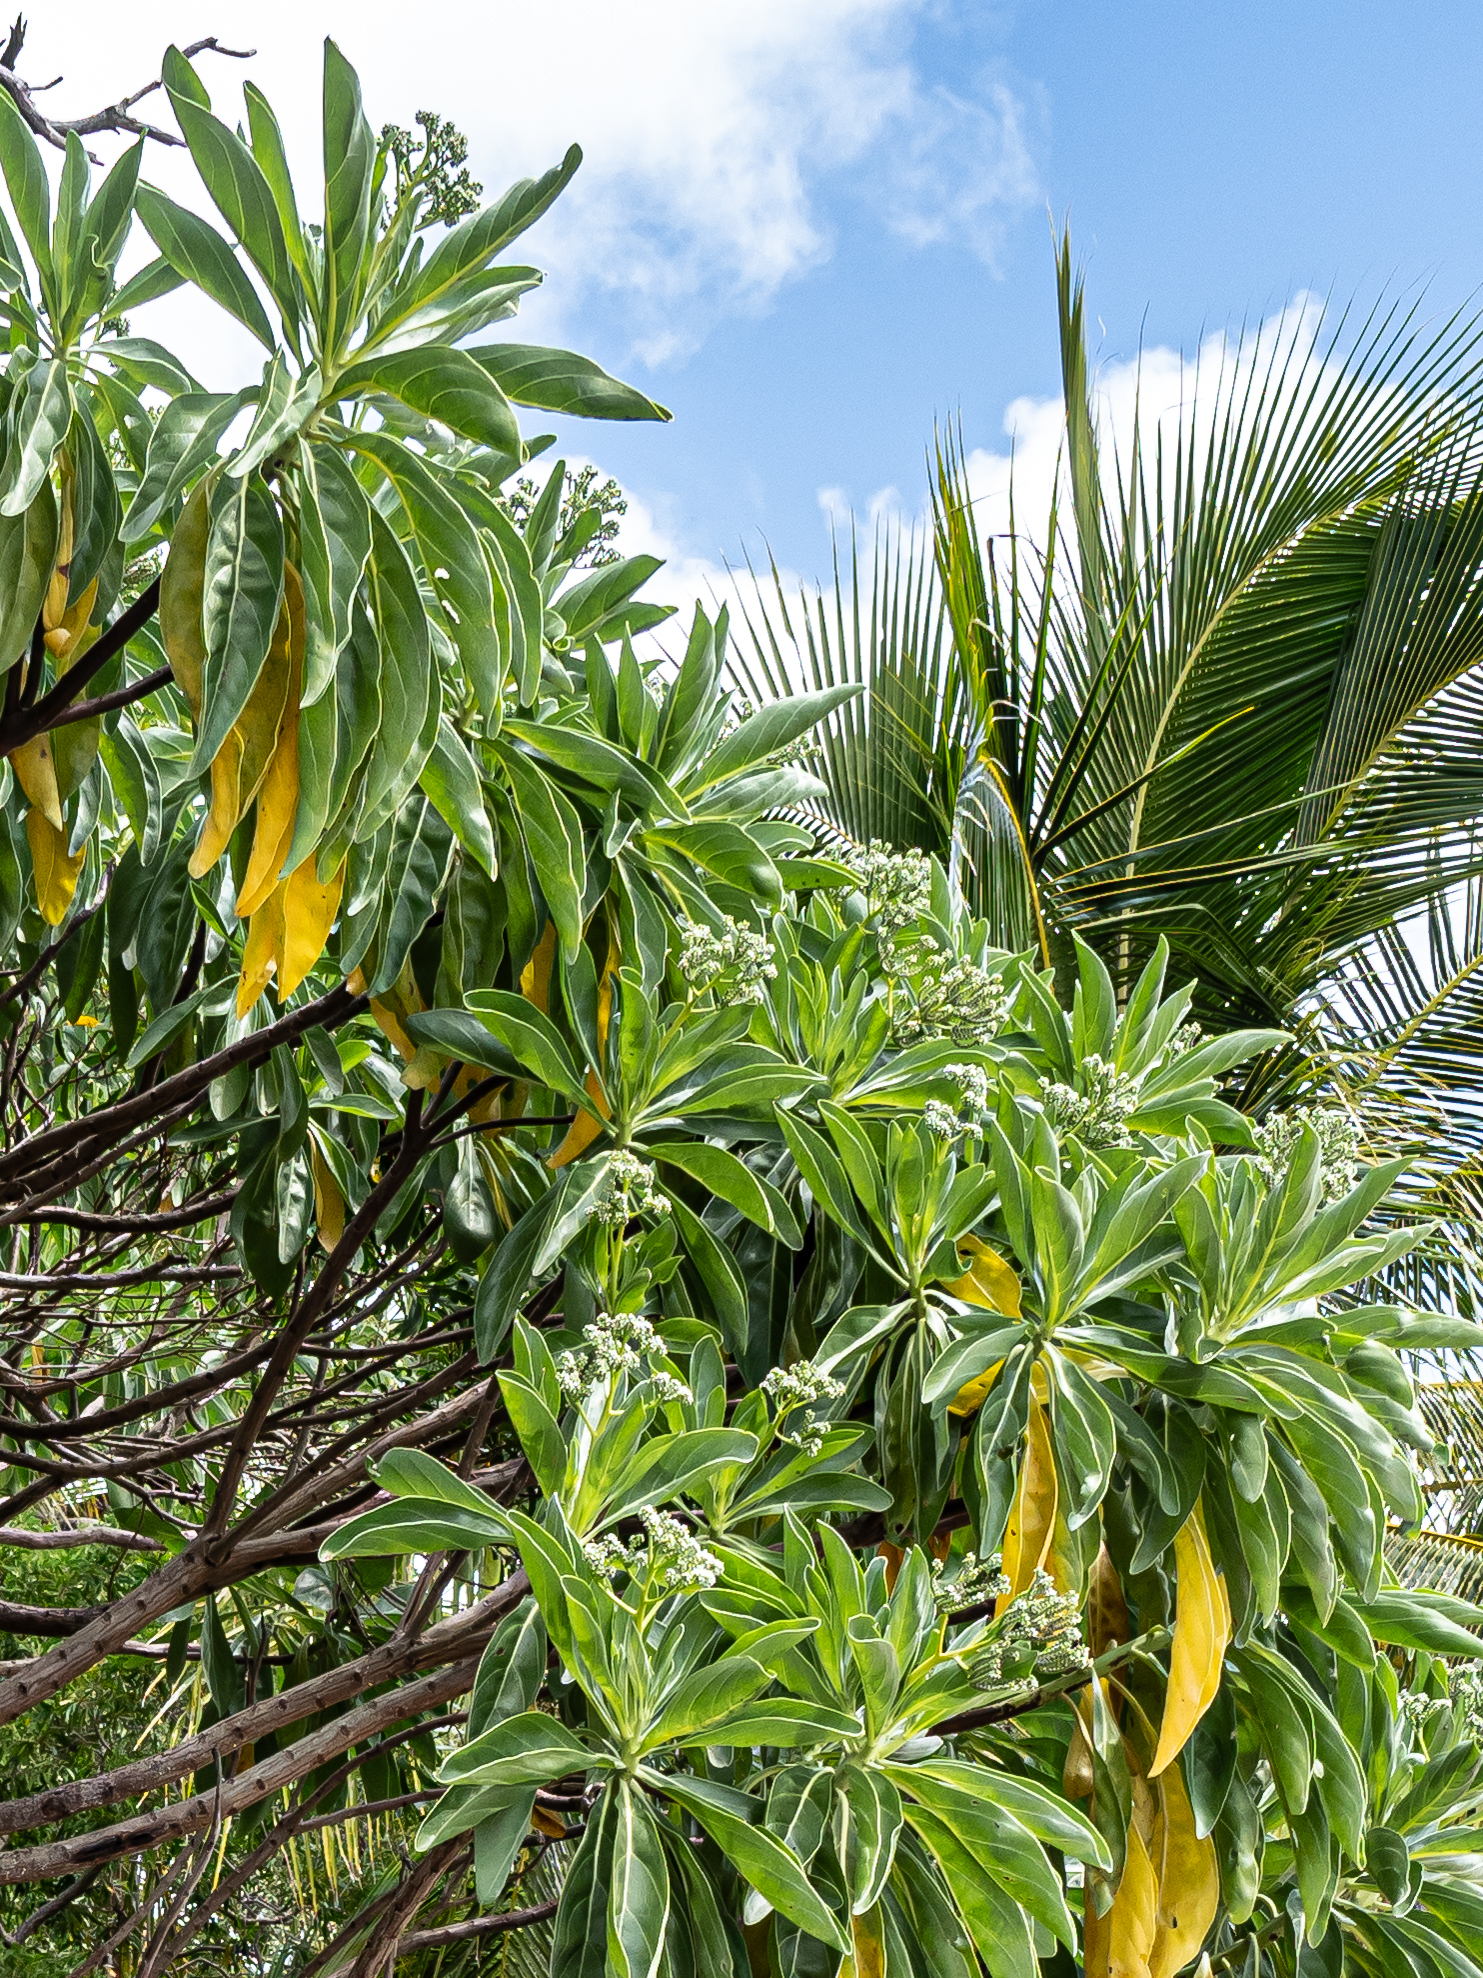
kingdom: Plantae
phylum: Tracheophyta
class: Magnoliopsida
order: Boraginales
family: Heliotropiaceae
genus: Heliotropium
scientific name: Heliotropium velutinum
